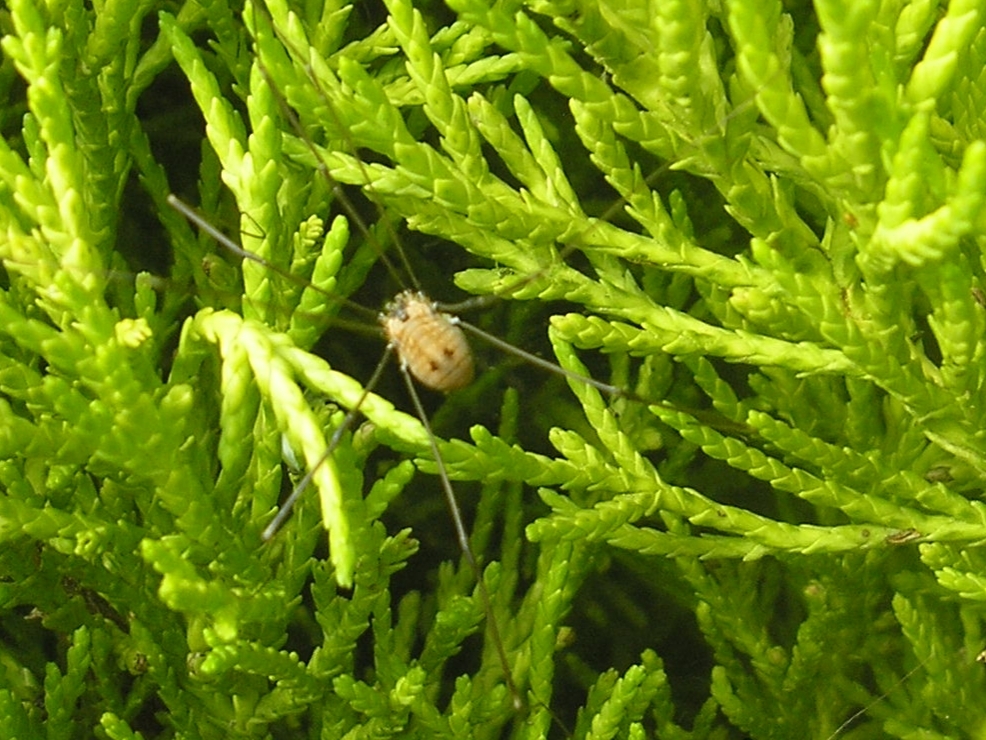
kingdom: Animalia
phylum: Arthropoda
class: Arachnida
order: Opiliones
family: Sclerosomatidae
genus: Leiobunum
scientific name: Leiobunum rotundum
